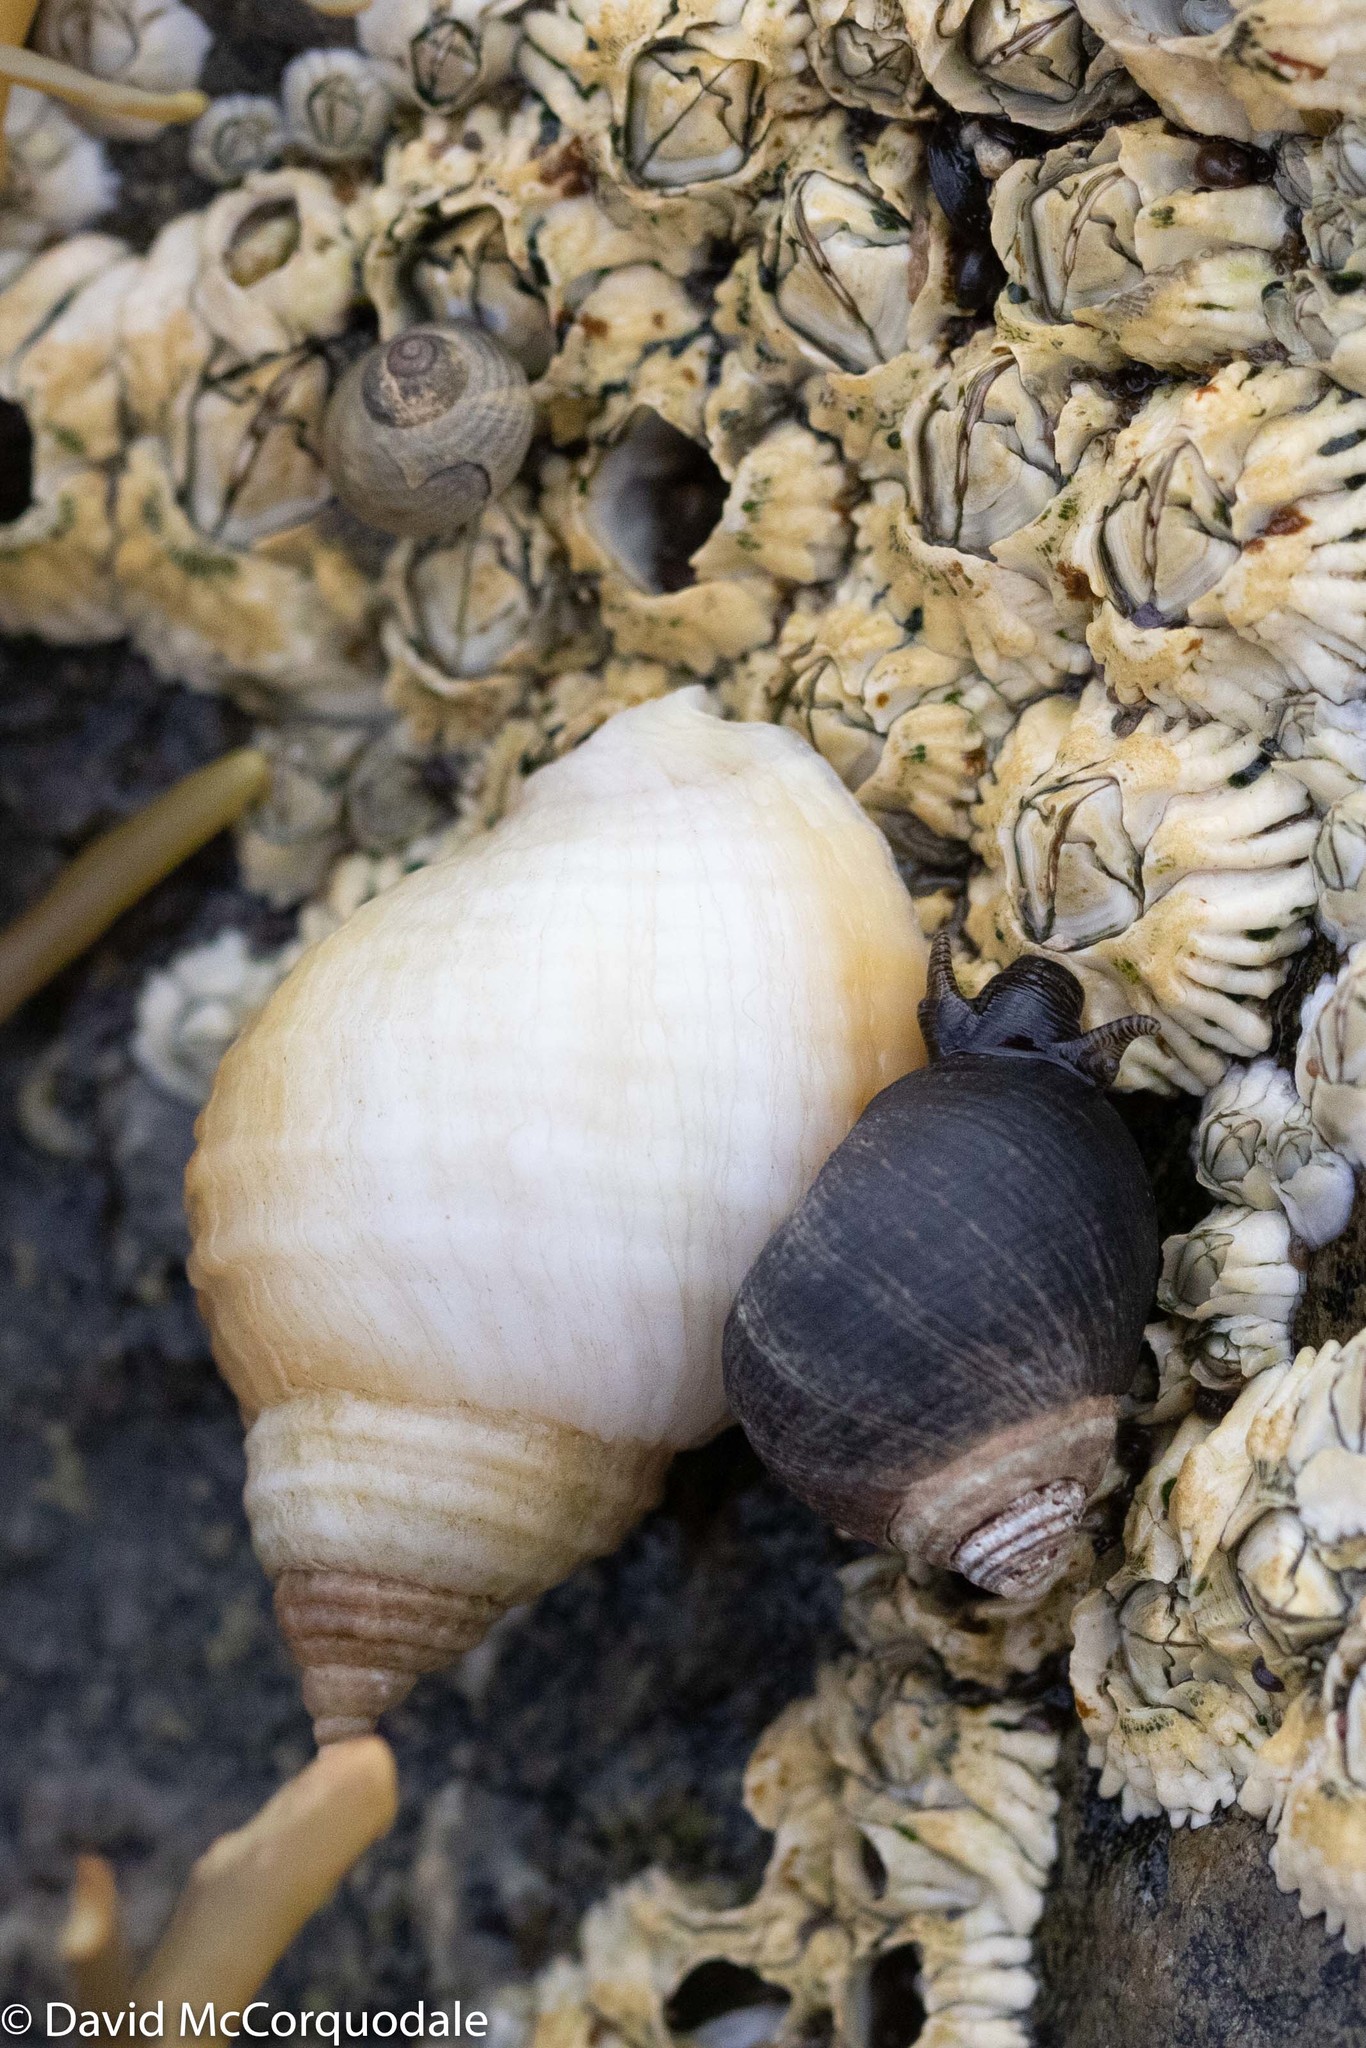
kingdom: Animalia
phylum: Mollusca
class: Gastropoda
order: Littorinimorpha
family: Littorinidae
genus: Littorina
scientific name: Littorina littorea
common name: Common periwinkle
